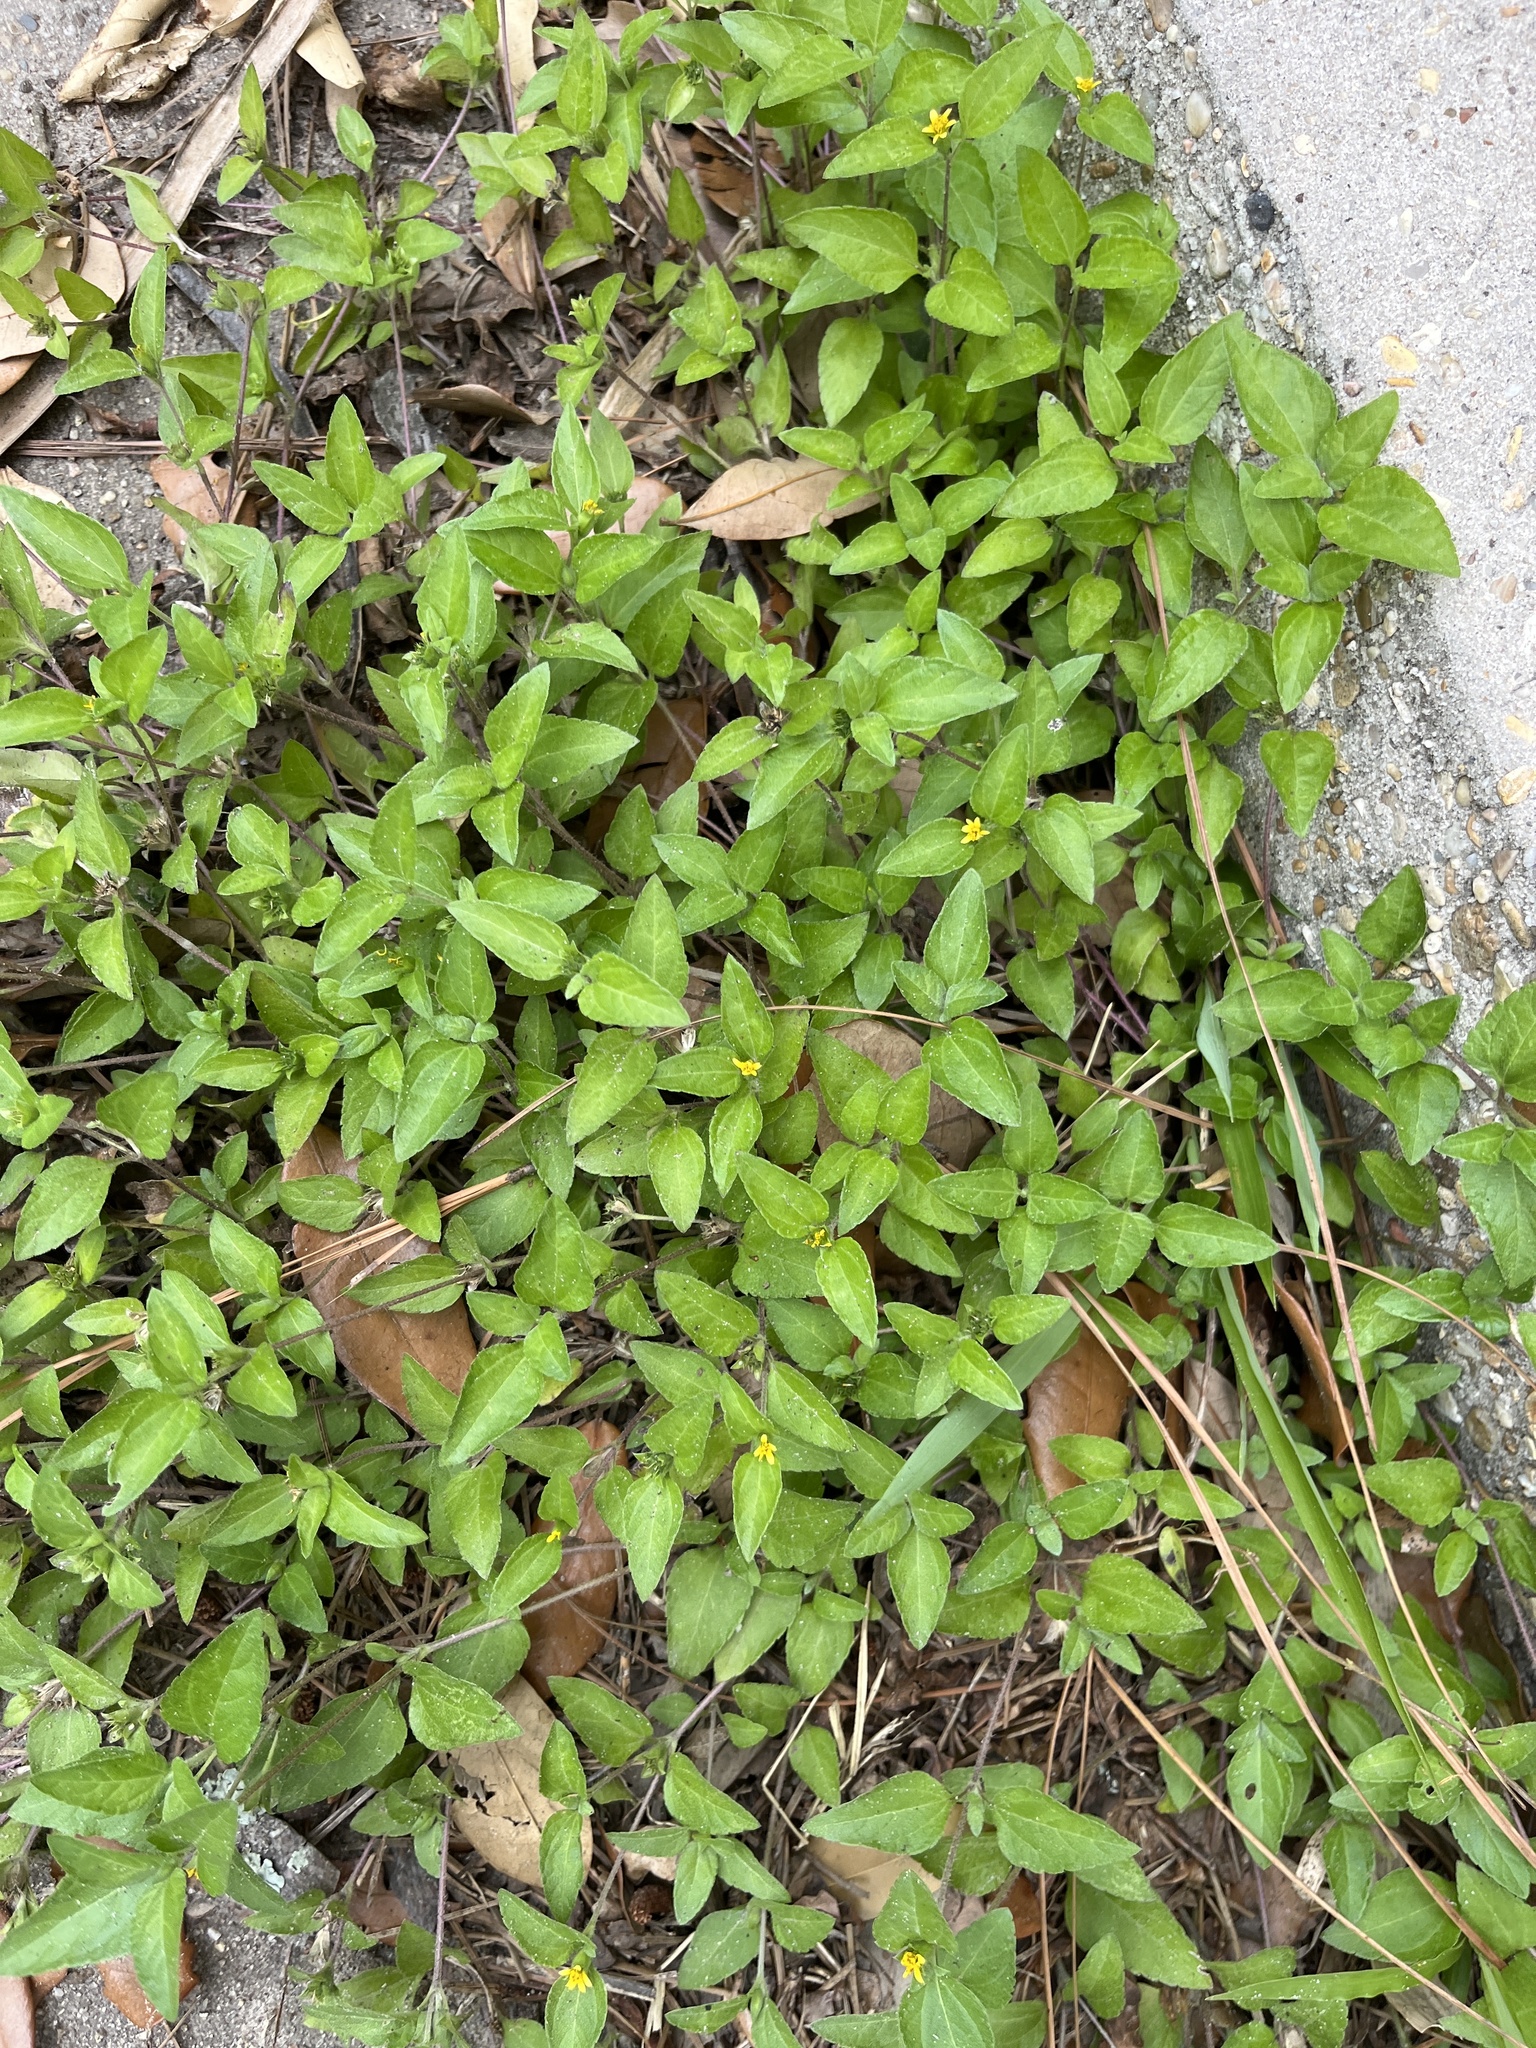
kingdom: Plantae
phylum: Tracheophyta
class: Magnoliopsida
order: Asterales
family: Asteraceae
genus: Calyptocarpus
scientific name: Calyptocarpus vialis
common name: Straggler daisy
